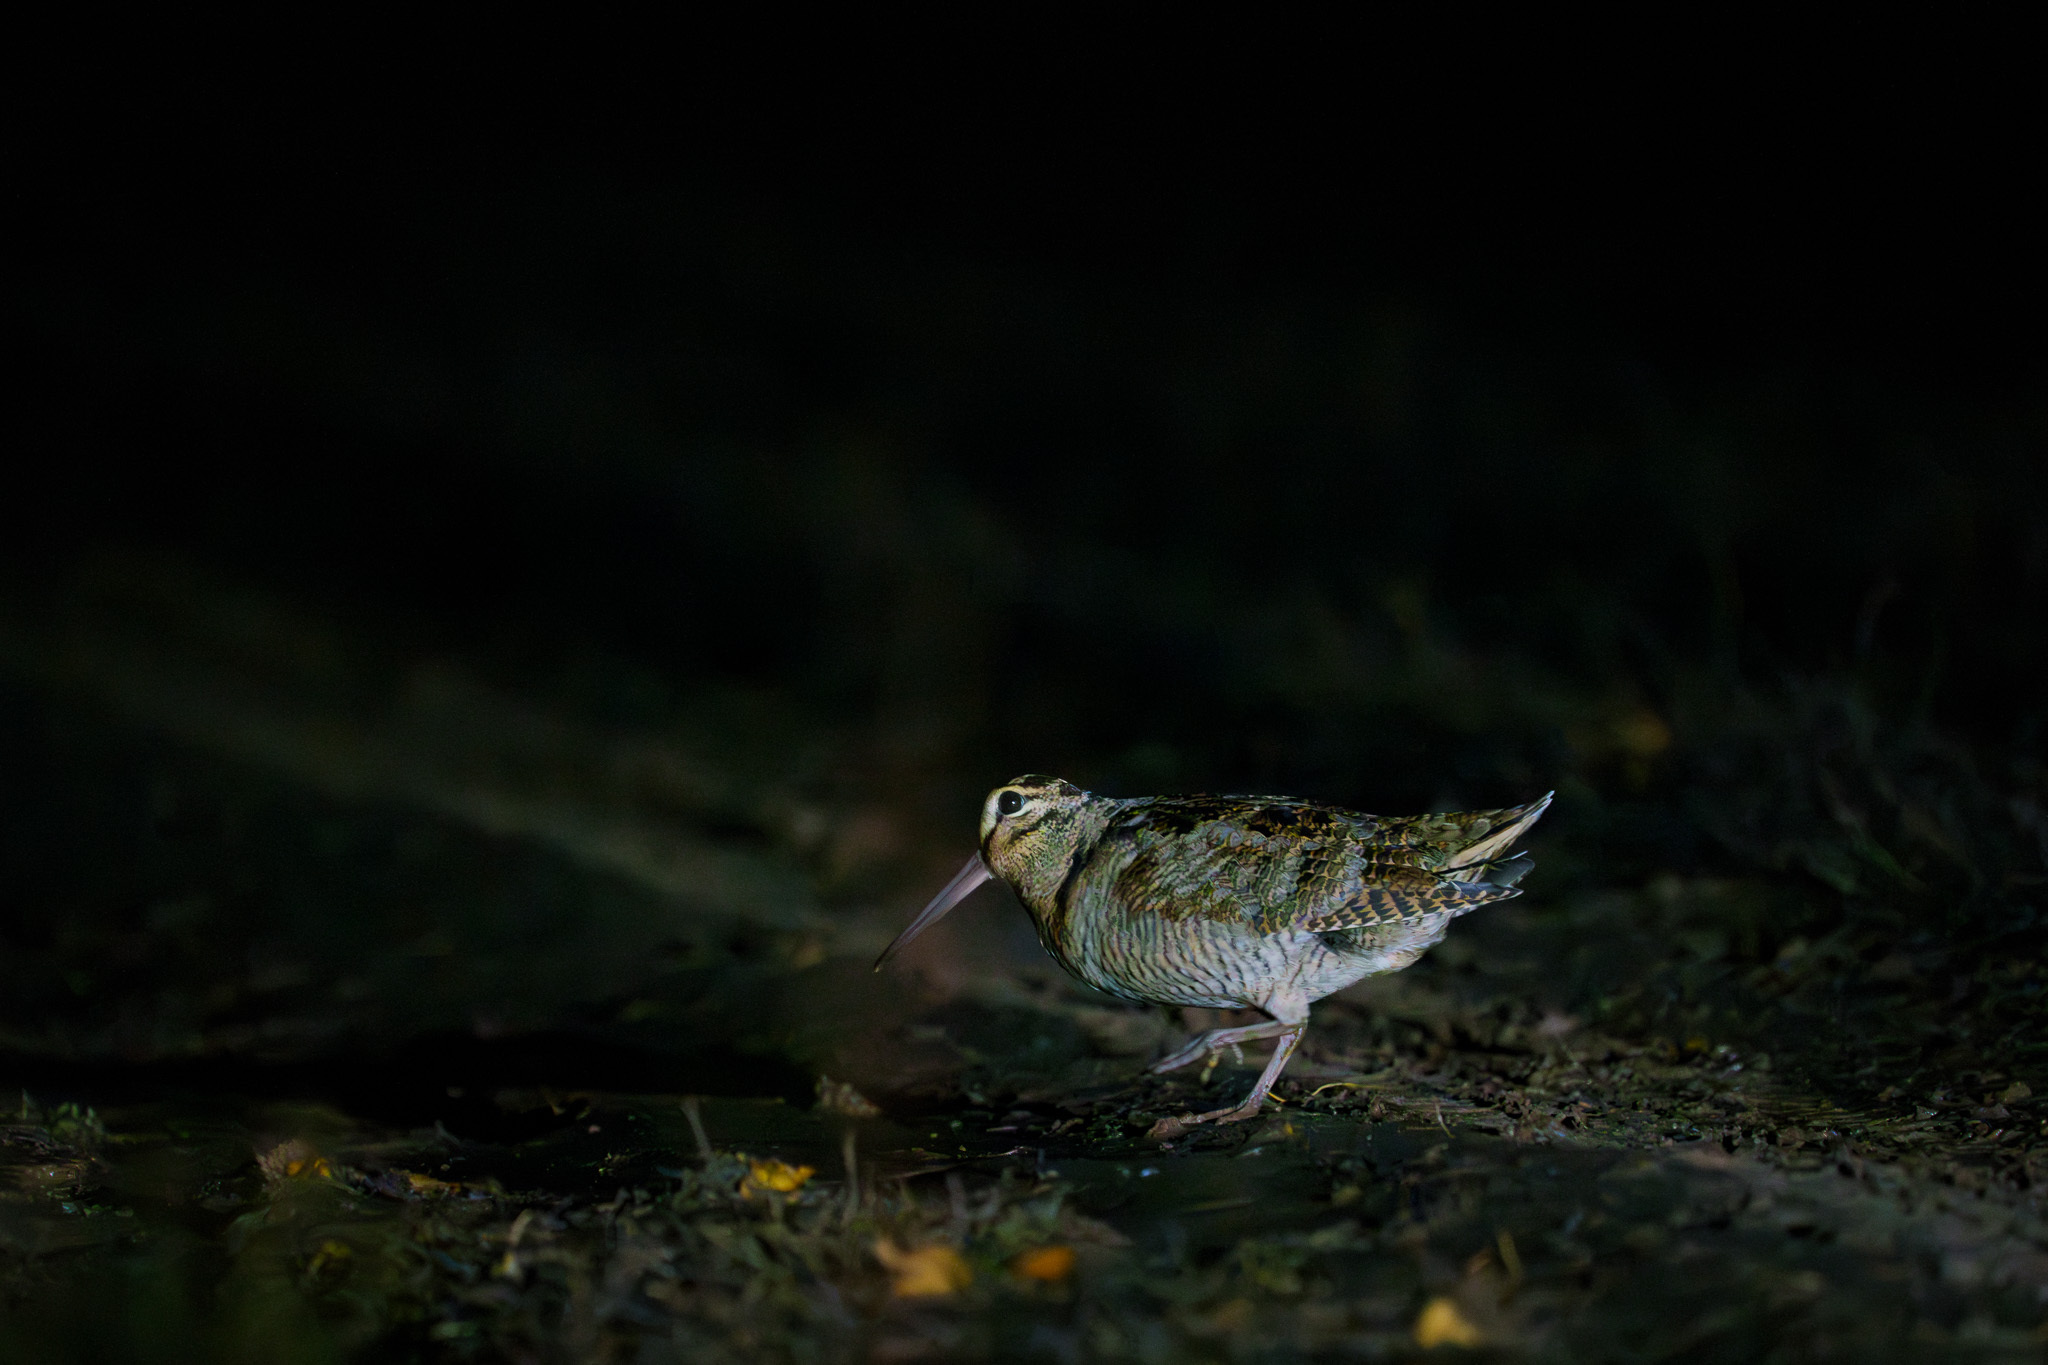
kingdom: Animalia
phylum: Chordata
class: Aves
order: Charadriiformes
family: Scolopacidae
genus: Scolopax
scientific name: Scolopax rusticola
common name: Eurasian woodcock
